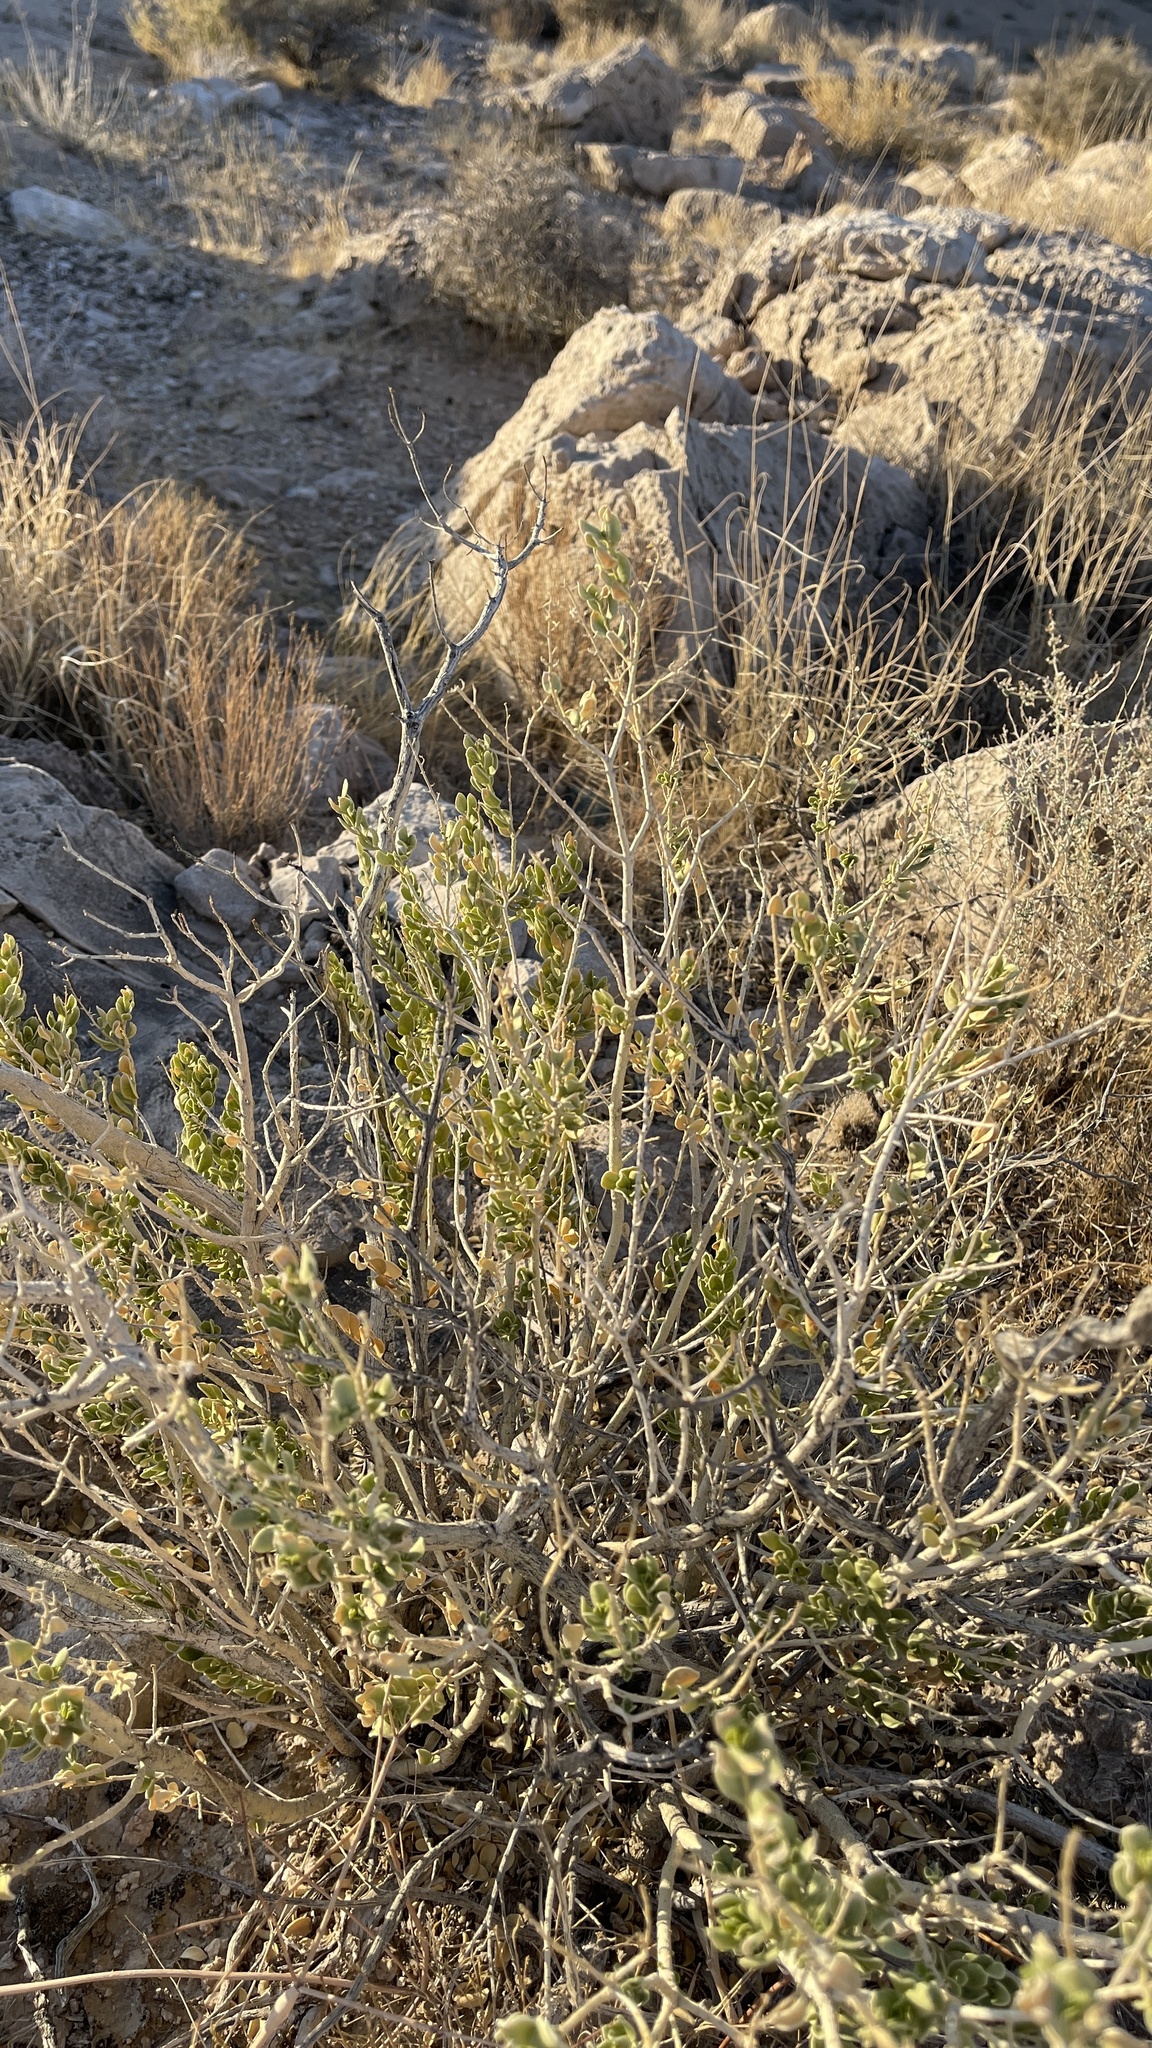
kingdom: Plantae
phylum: Tracheophyta
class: Magnoliopsida
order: Celastrales
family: Celastraceae
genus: Mortonia
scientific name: Mortonia utahensis
